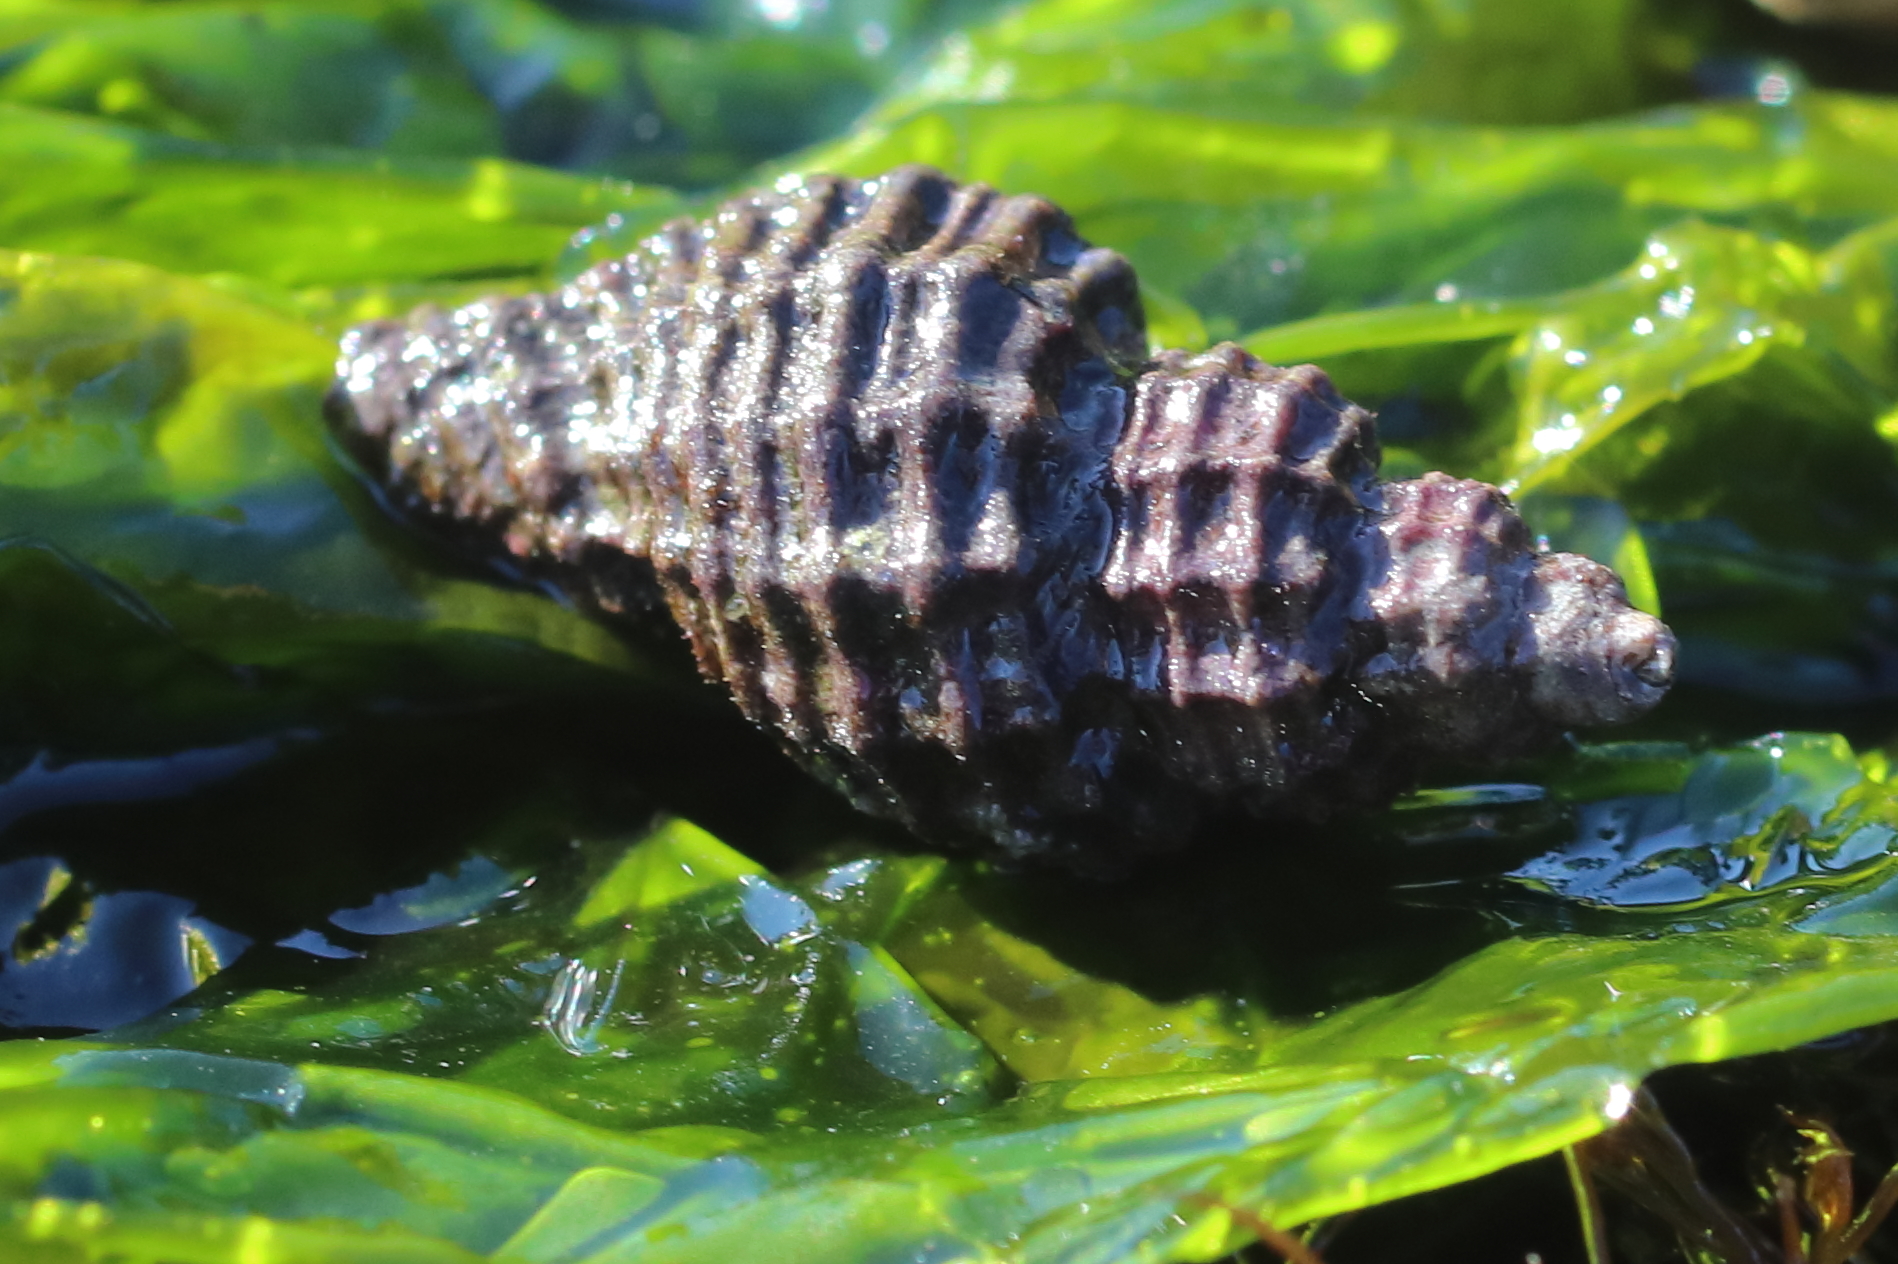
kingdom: Animalia
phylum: Mollusca
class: Gastropoda
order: Neogastropoda
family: Muricidae
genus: Paciocinebrina
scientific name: Paciocinebrina interfossa
